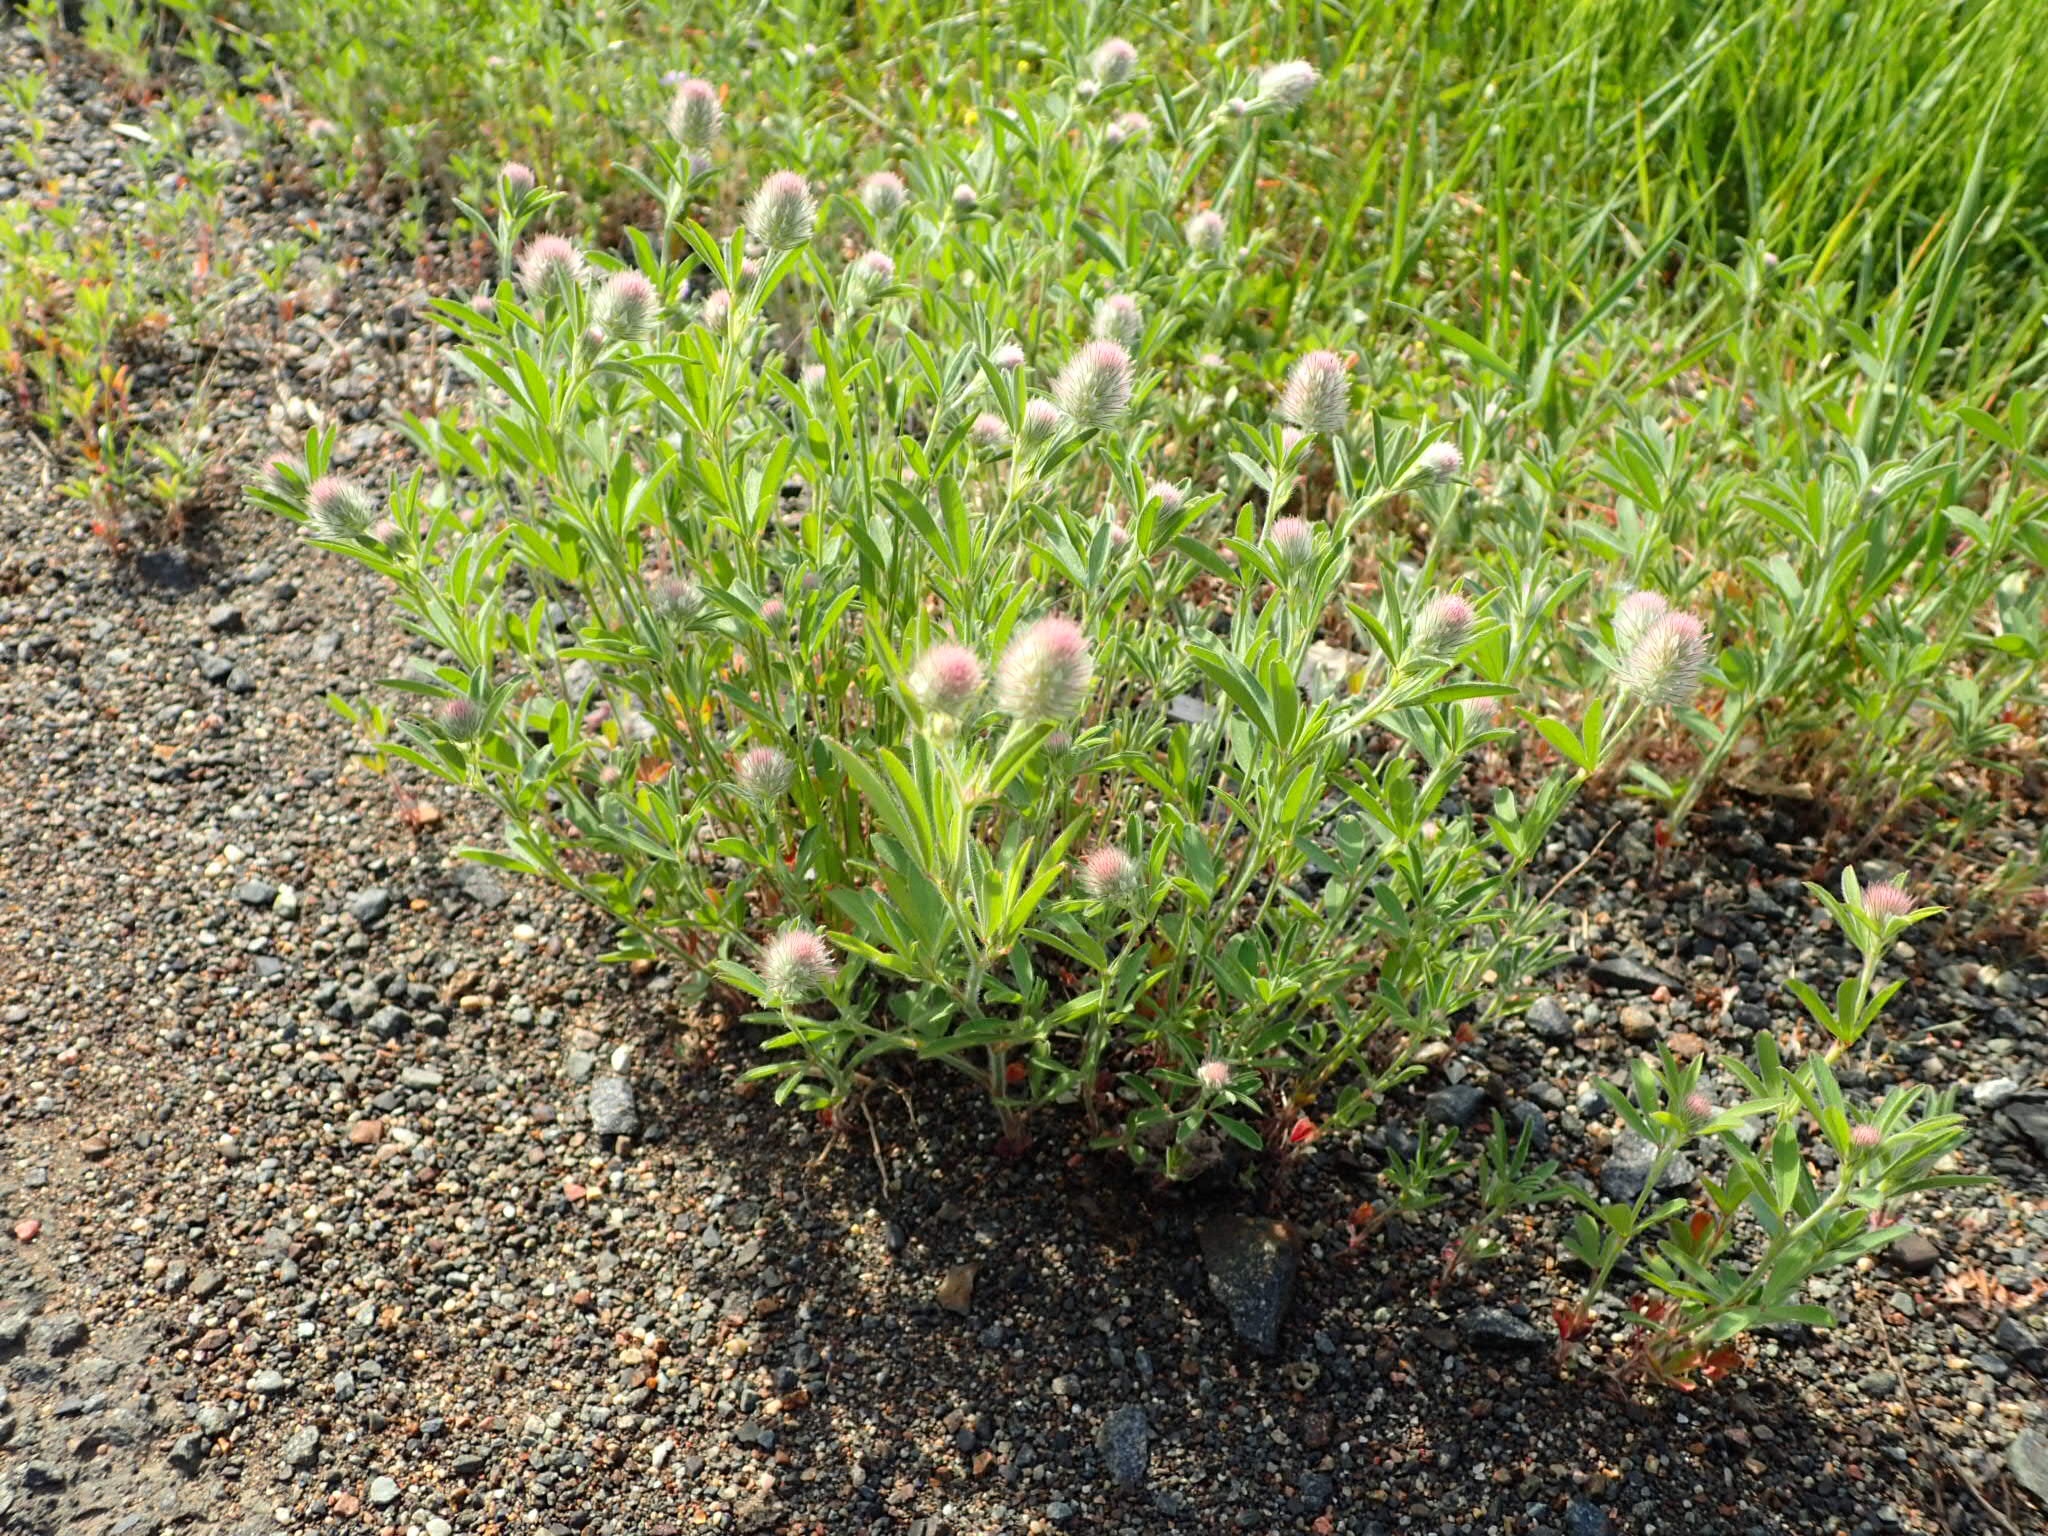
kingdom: Plantae
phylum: Tracheophyta
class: Magnoliopsida
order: Fabales
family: Fabaceae
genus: Trifolium
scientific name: Trifolium arvense
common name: Hare's-foot clover
